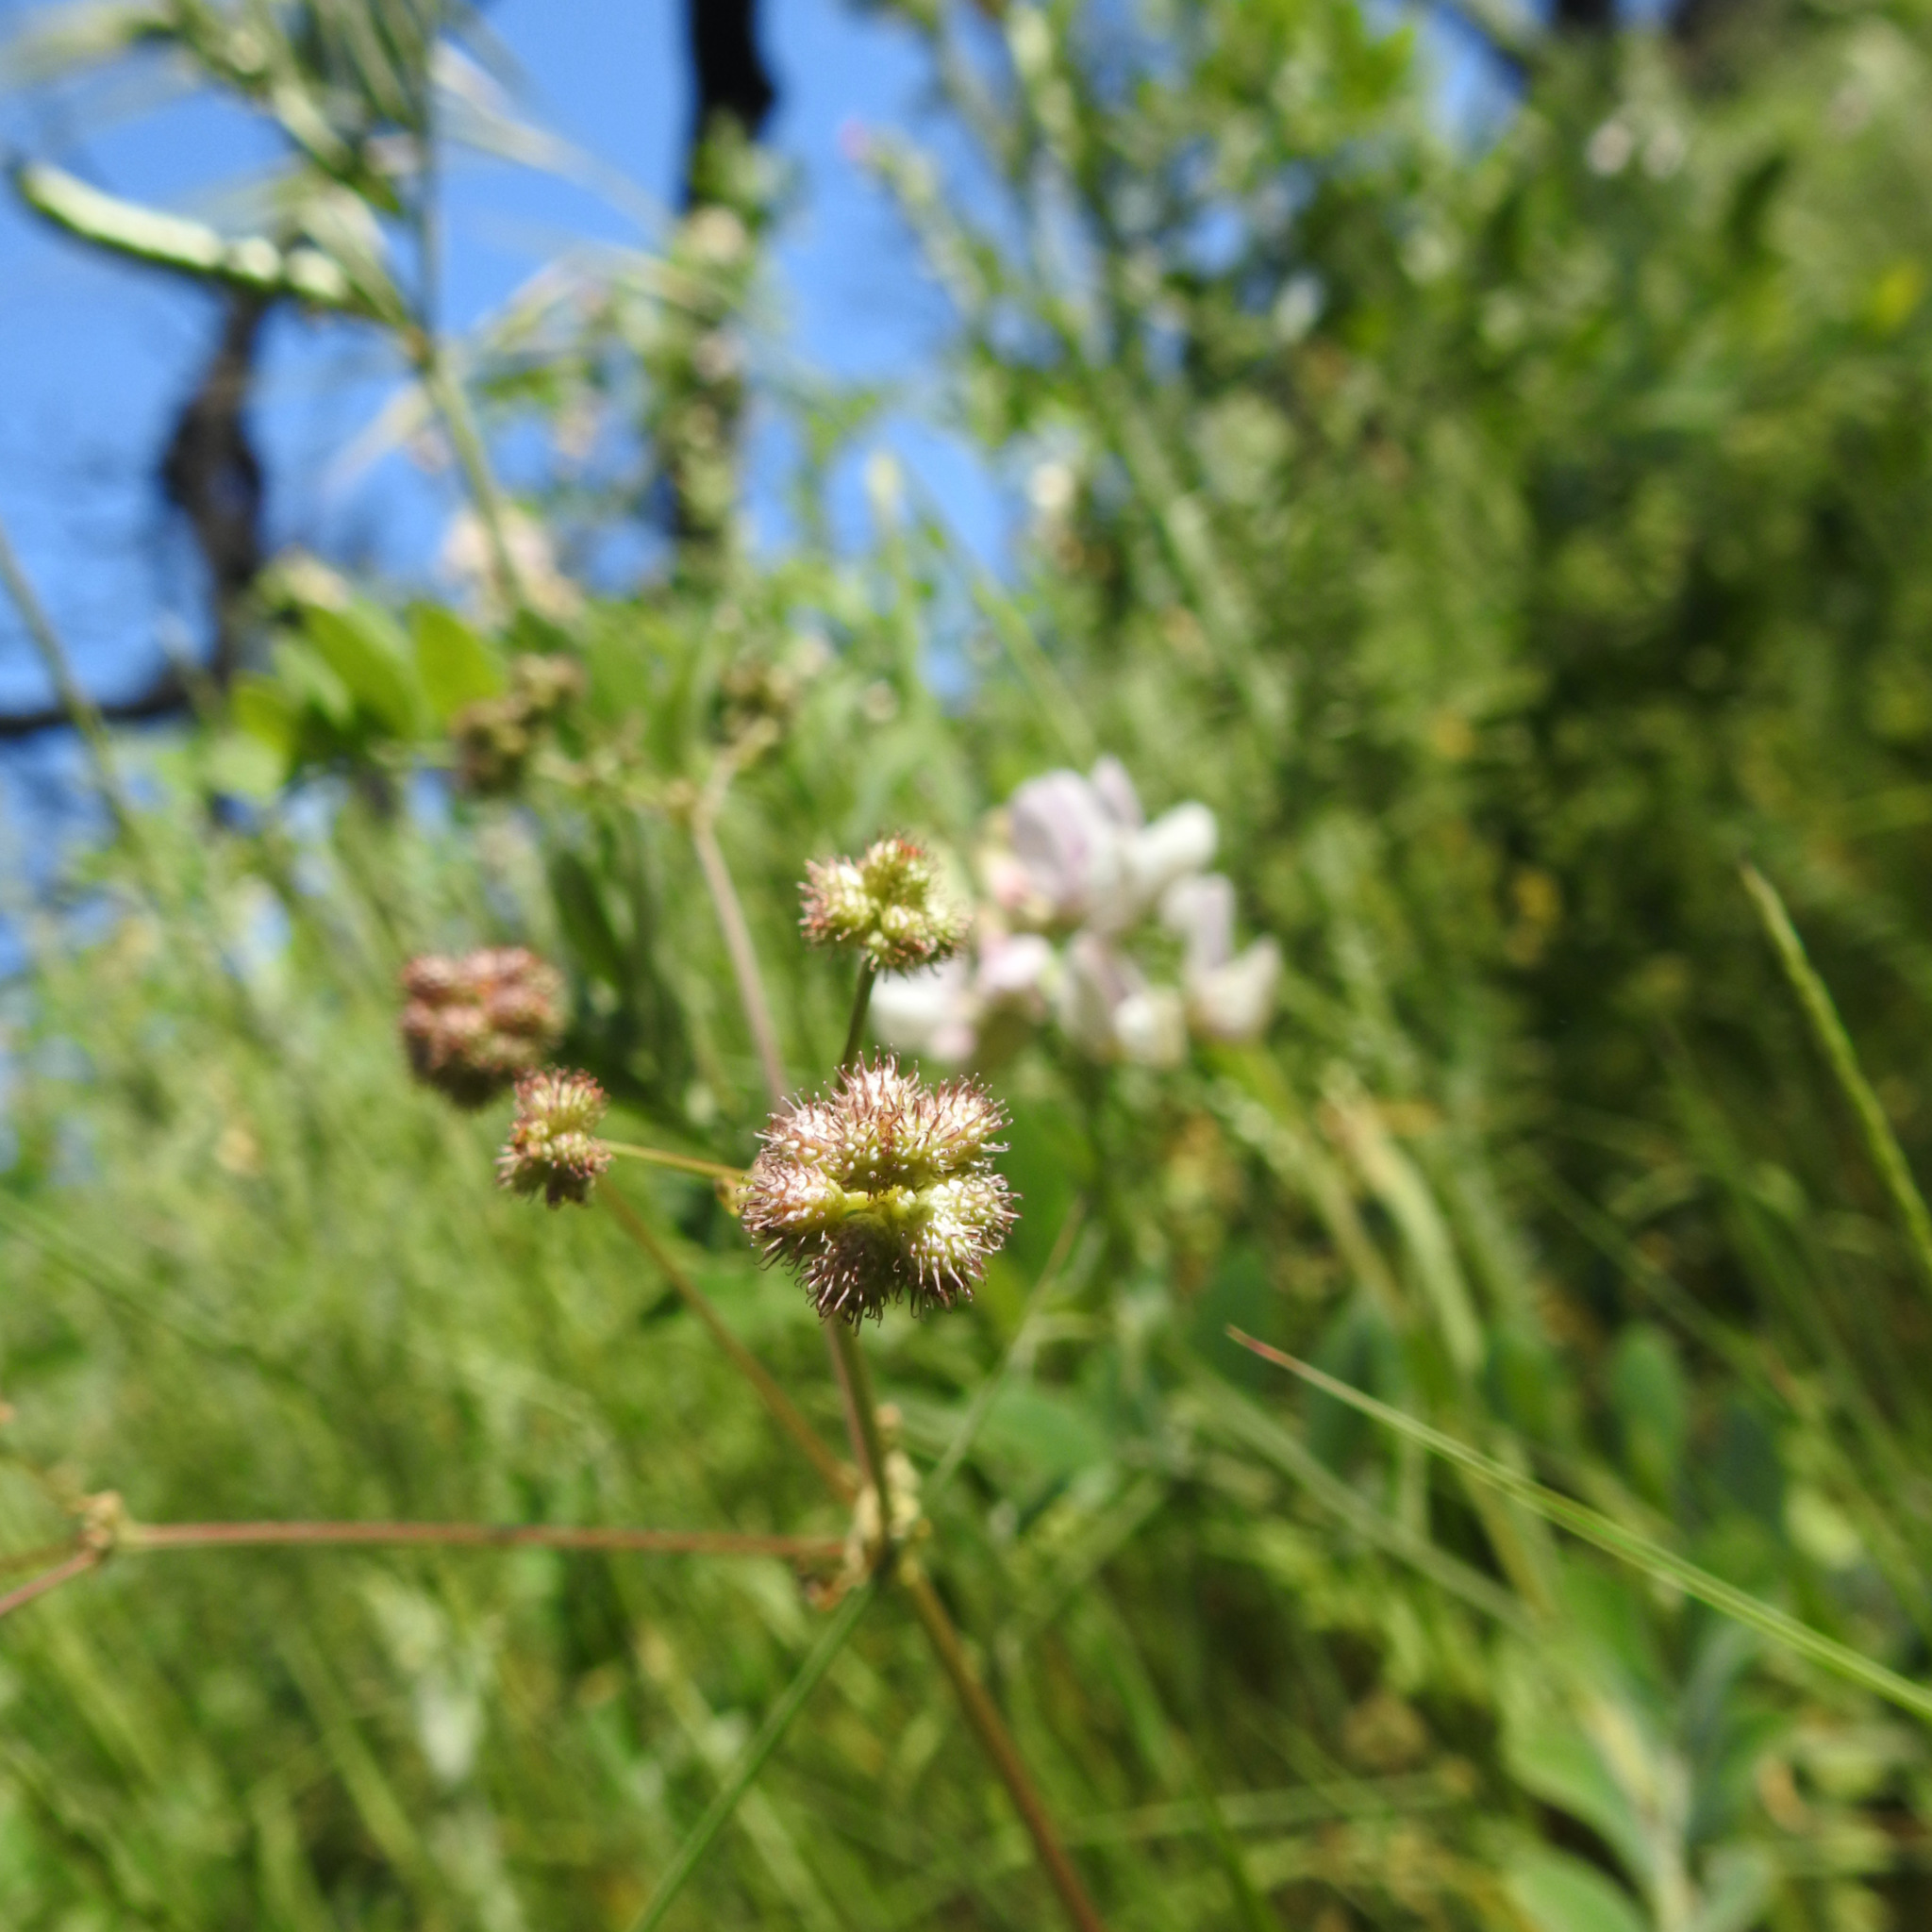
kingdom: Plantae
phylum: Tracheophyta
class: Magnoliopsida
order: Apiales
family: Apiaceae
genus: Sanicula
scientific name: Sanicula crassicaulis
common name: Western snakeroot
